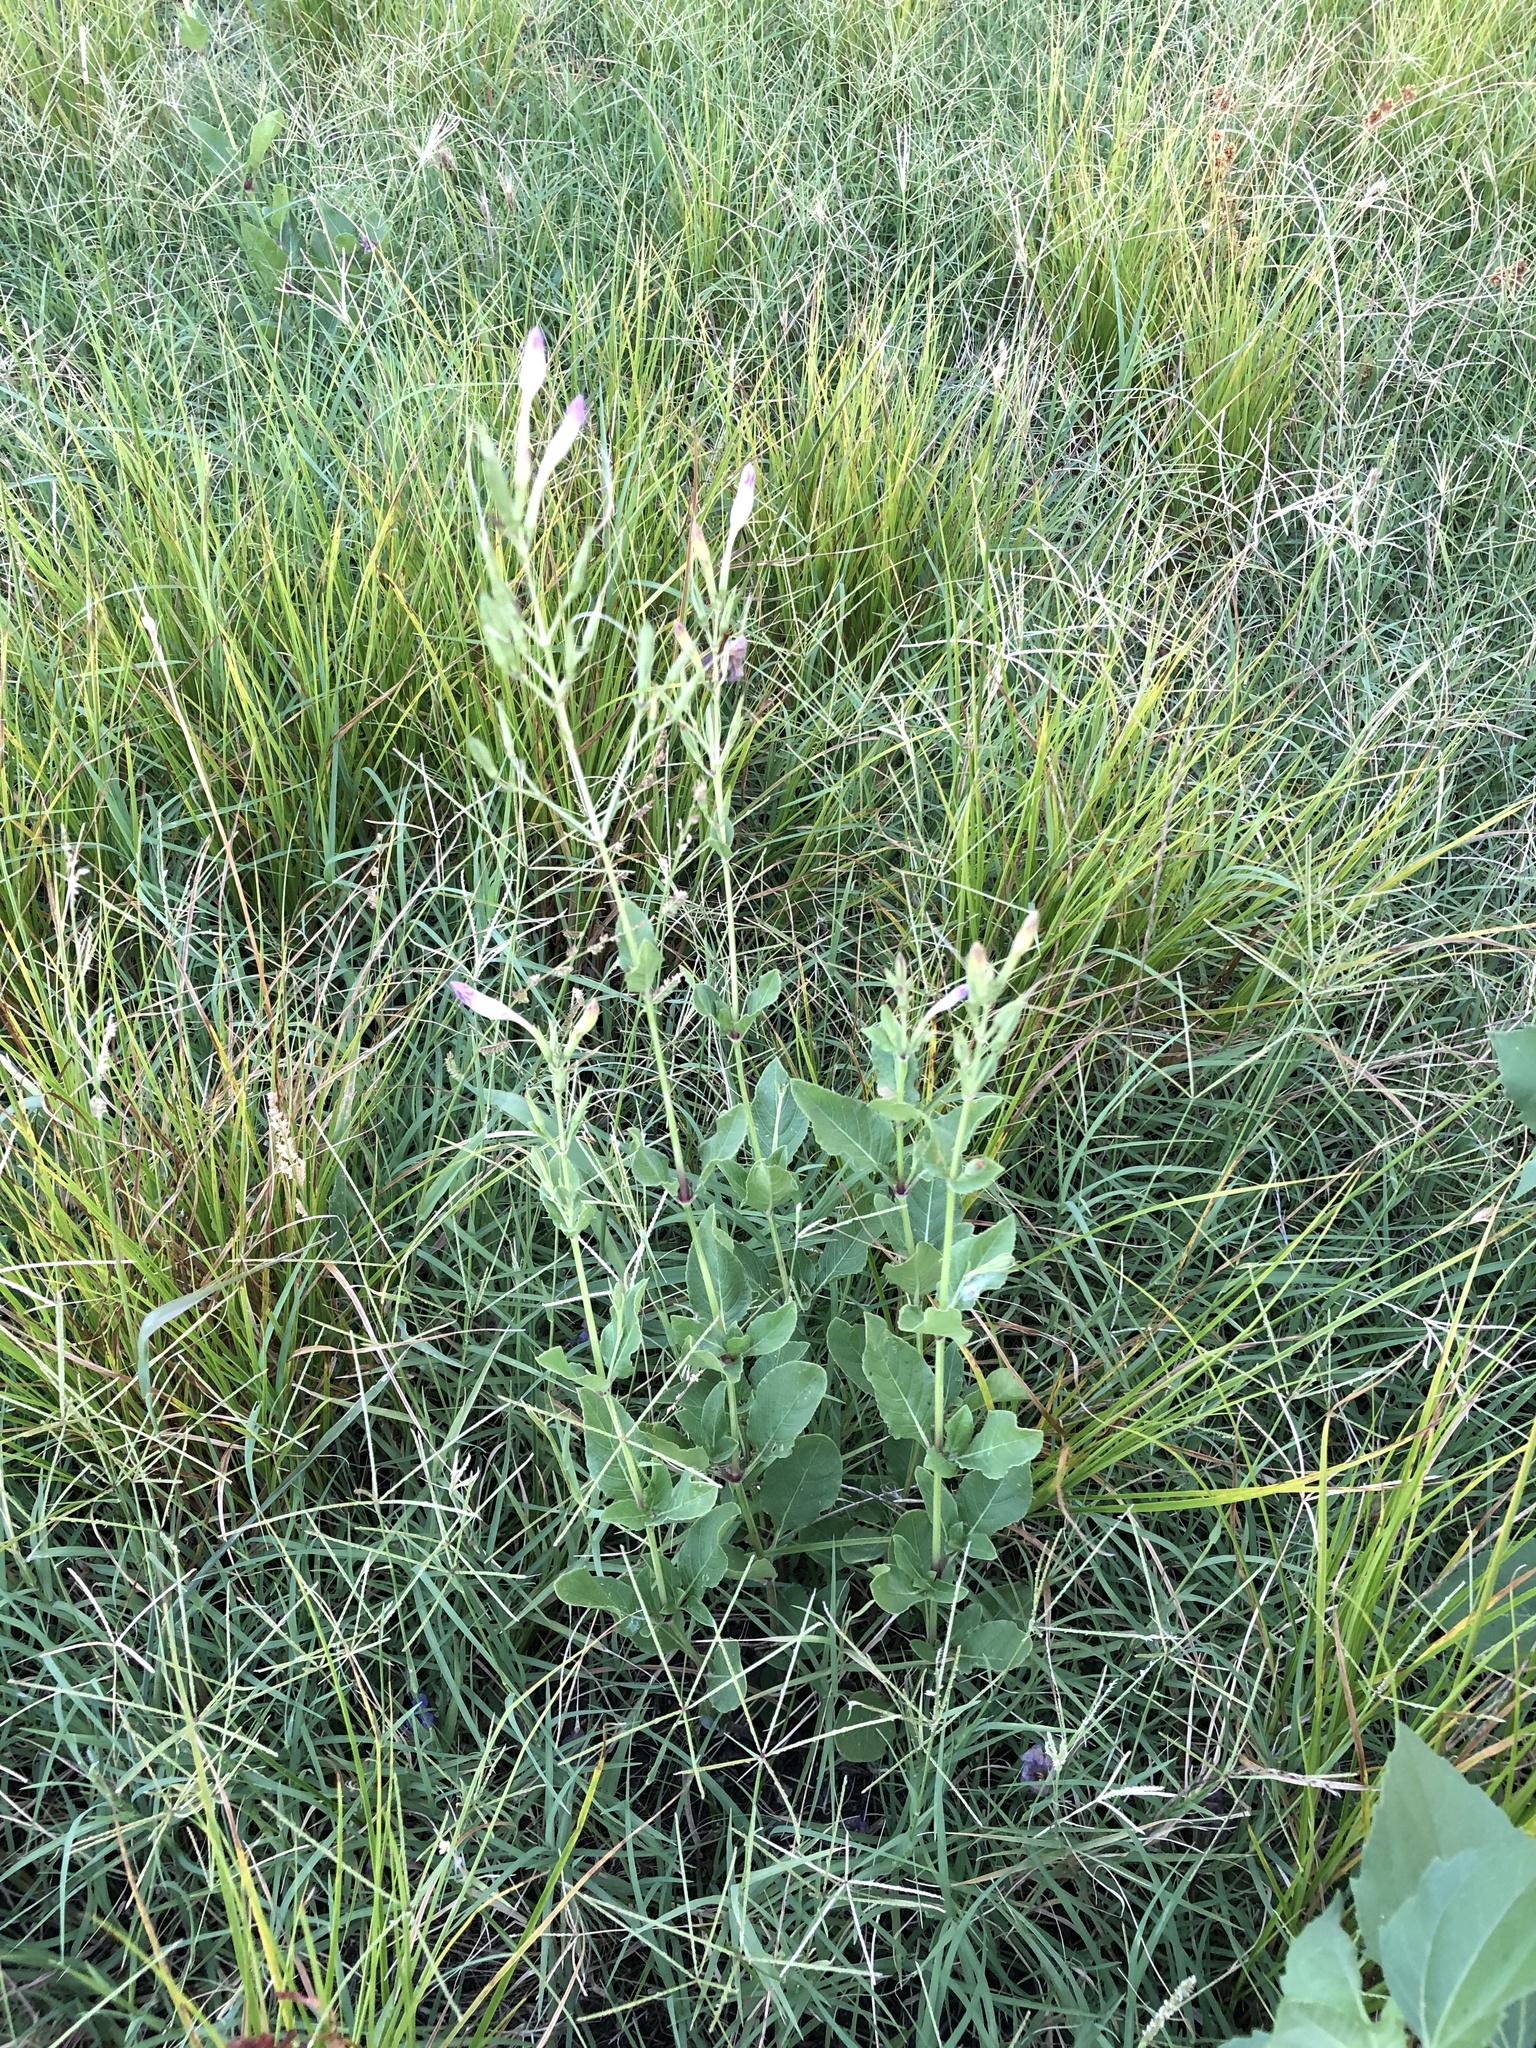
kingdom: Plantae
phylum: Tracheophyta
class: Magnoliopsida
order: Lamiales
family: Acanthaceae
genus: Ruellia
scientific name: Ruellia ciliatiflora
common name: Hairyflower wild petunia
